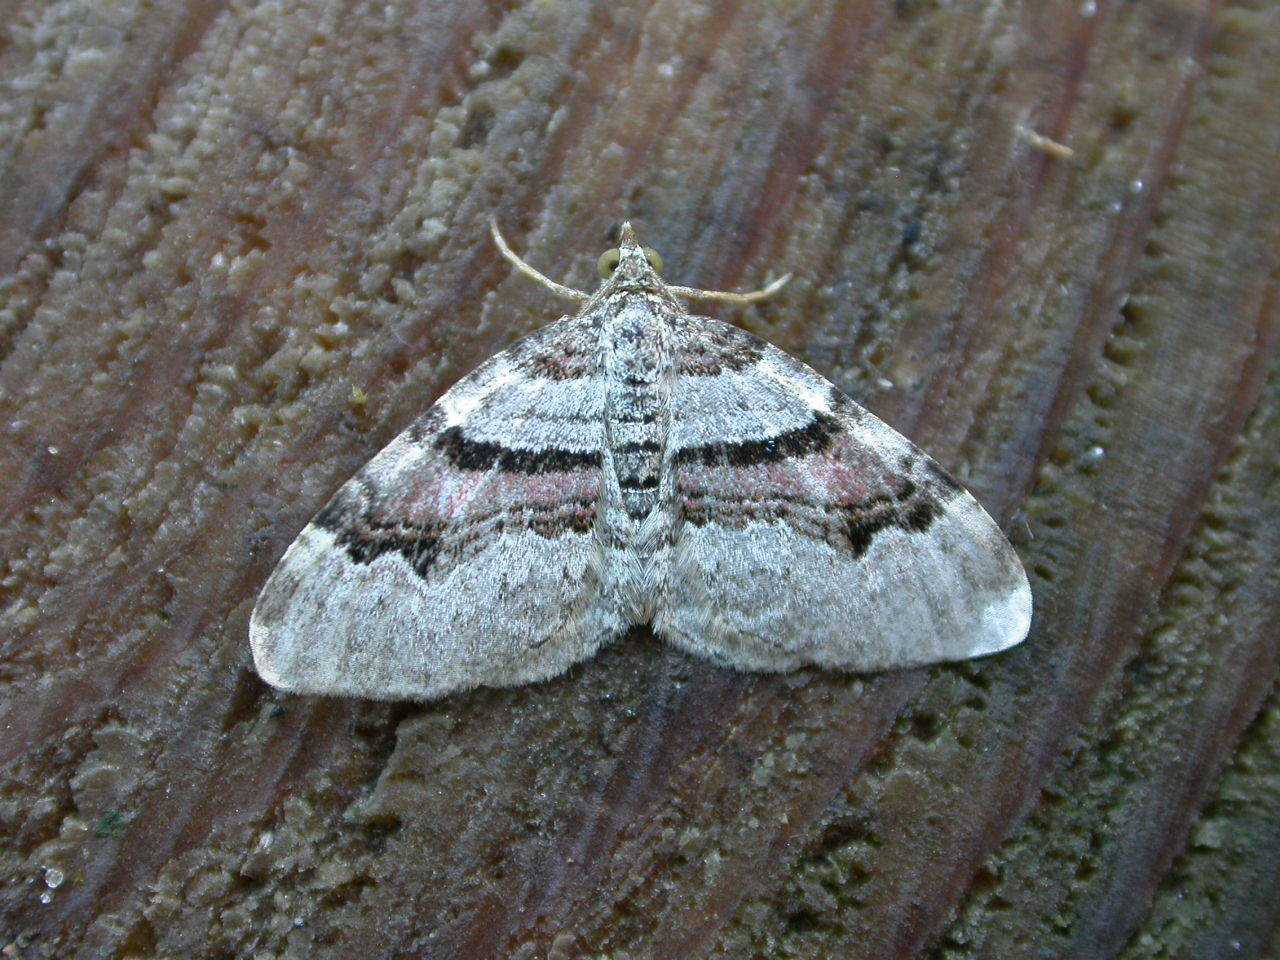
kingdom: Animalia
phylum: Arthropoda
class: Insecta
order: Lepidoptera
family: Geometridae
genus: Xanthorhoe
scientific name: Xanthorhoe designata
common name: Flame carpet
